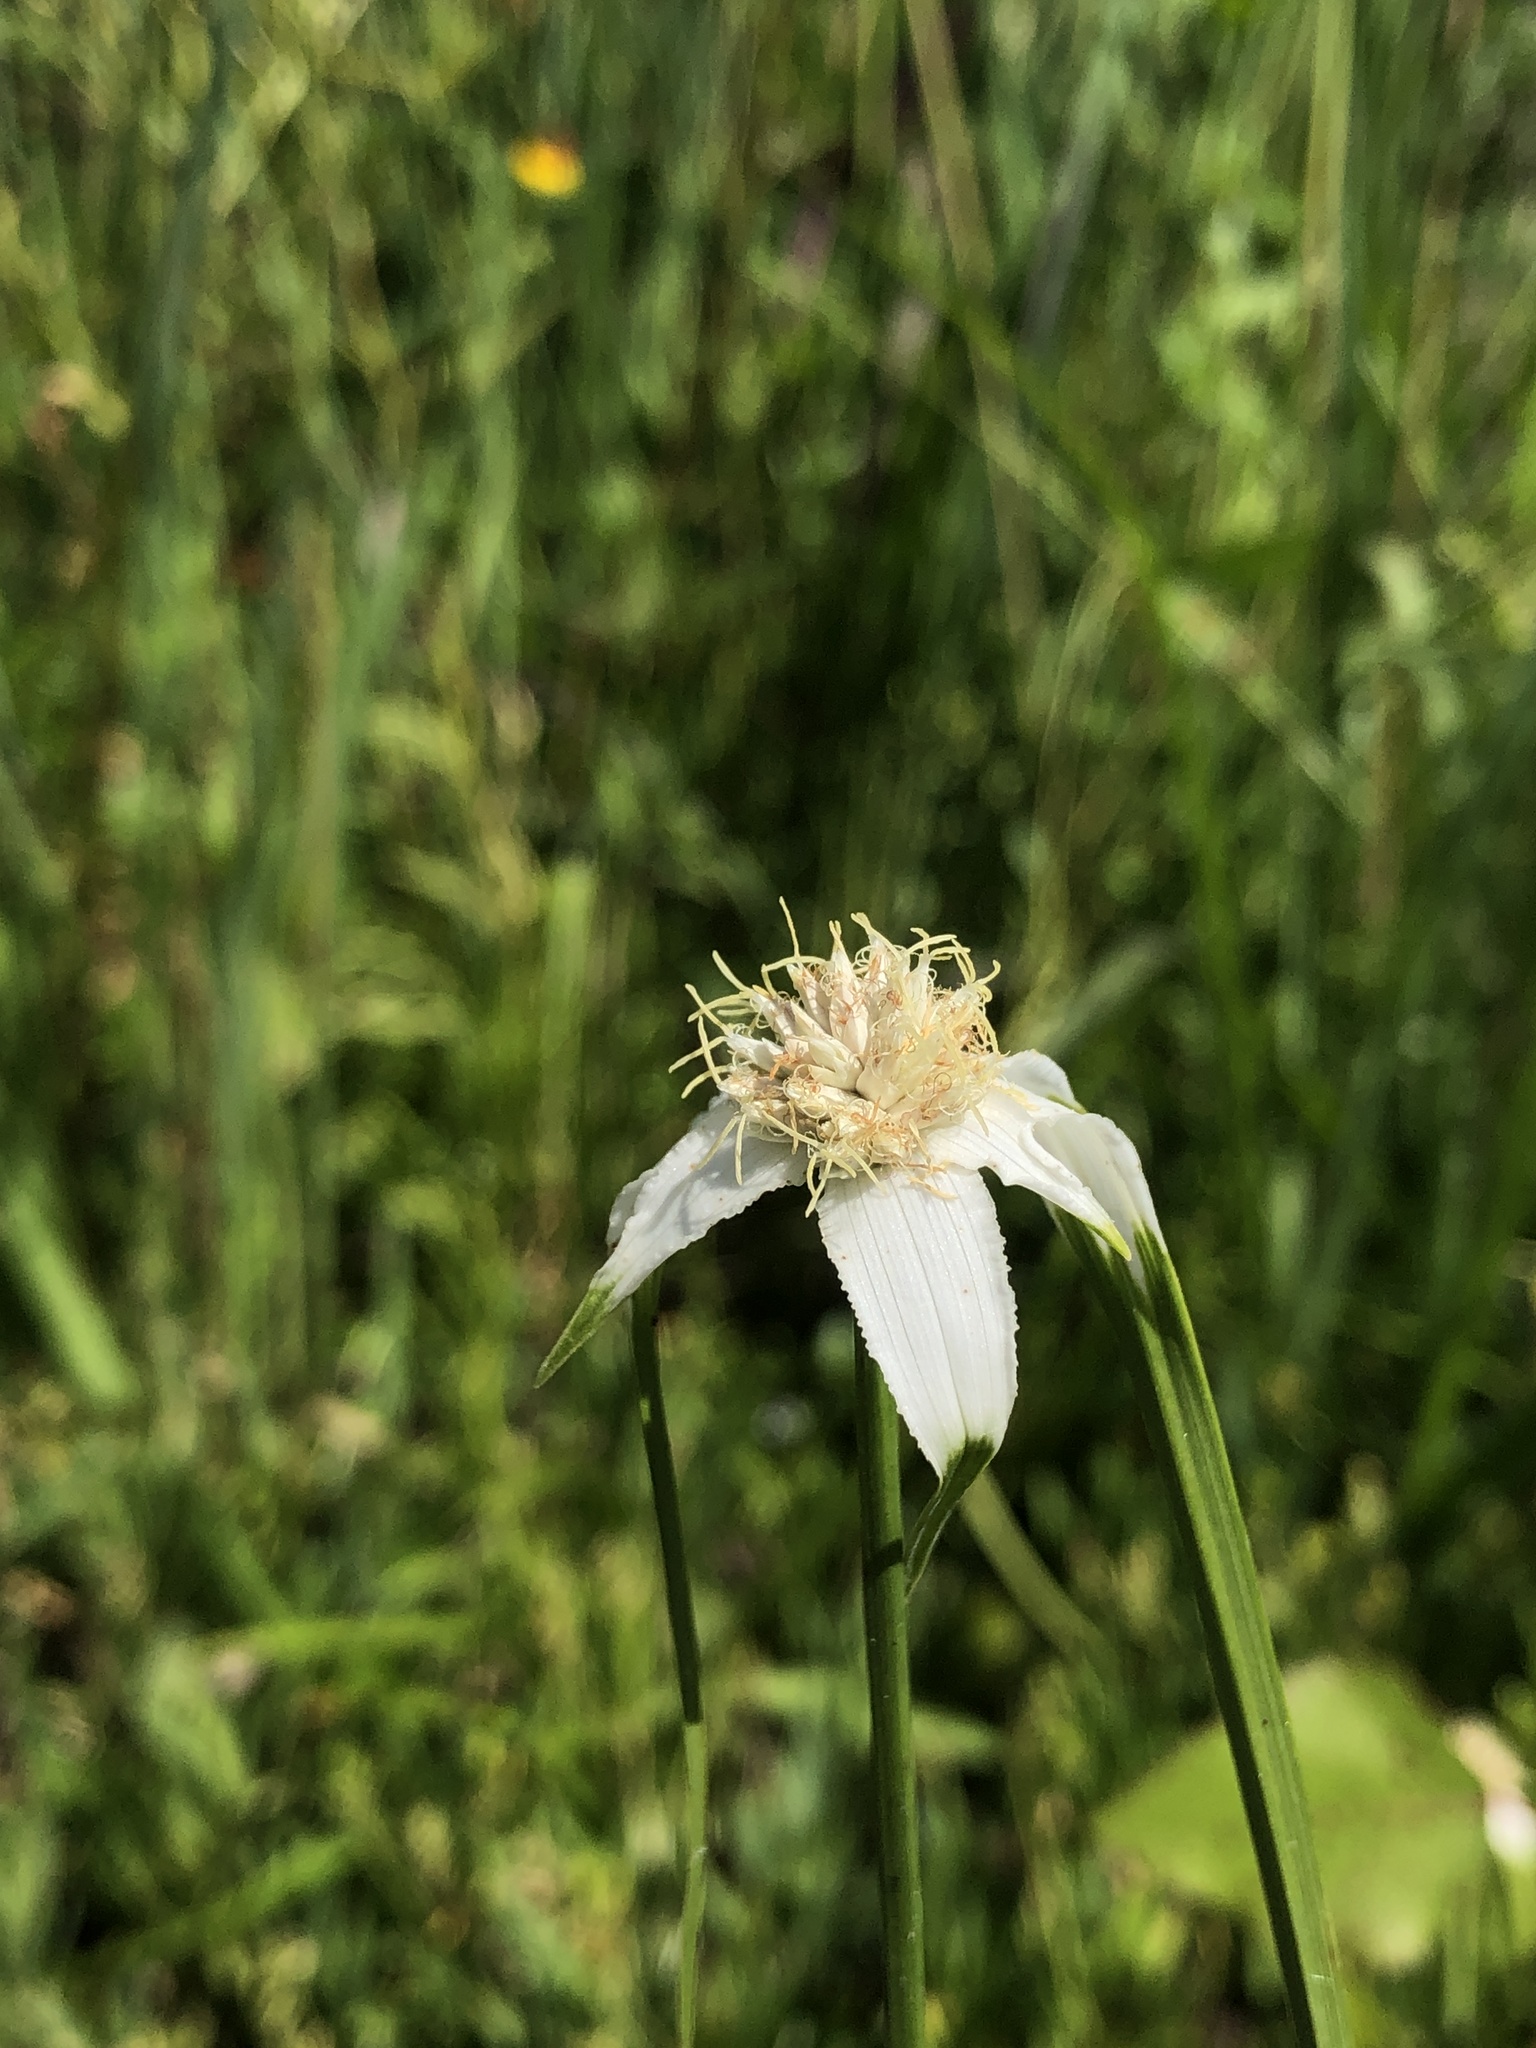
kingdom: Plantae
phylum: Tracheophyta
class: Liliopsida
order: Poales
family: Cyperaceae
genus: Rhynchospora
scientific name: Rhynchospora colorata
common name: Star sedge
